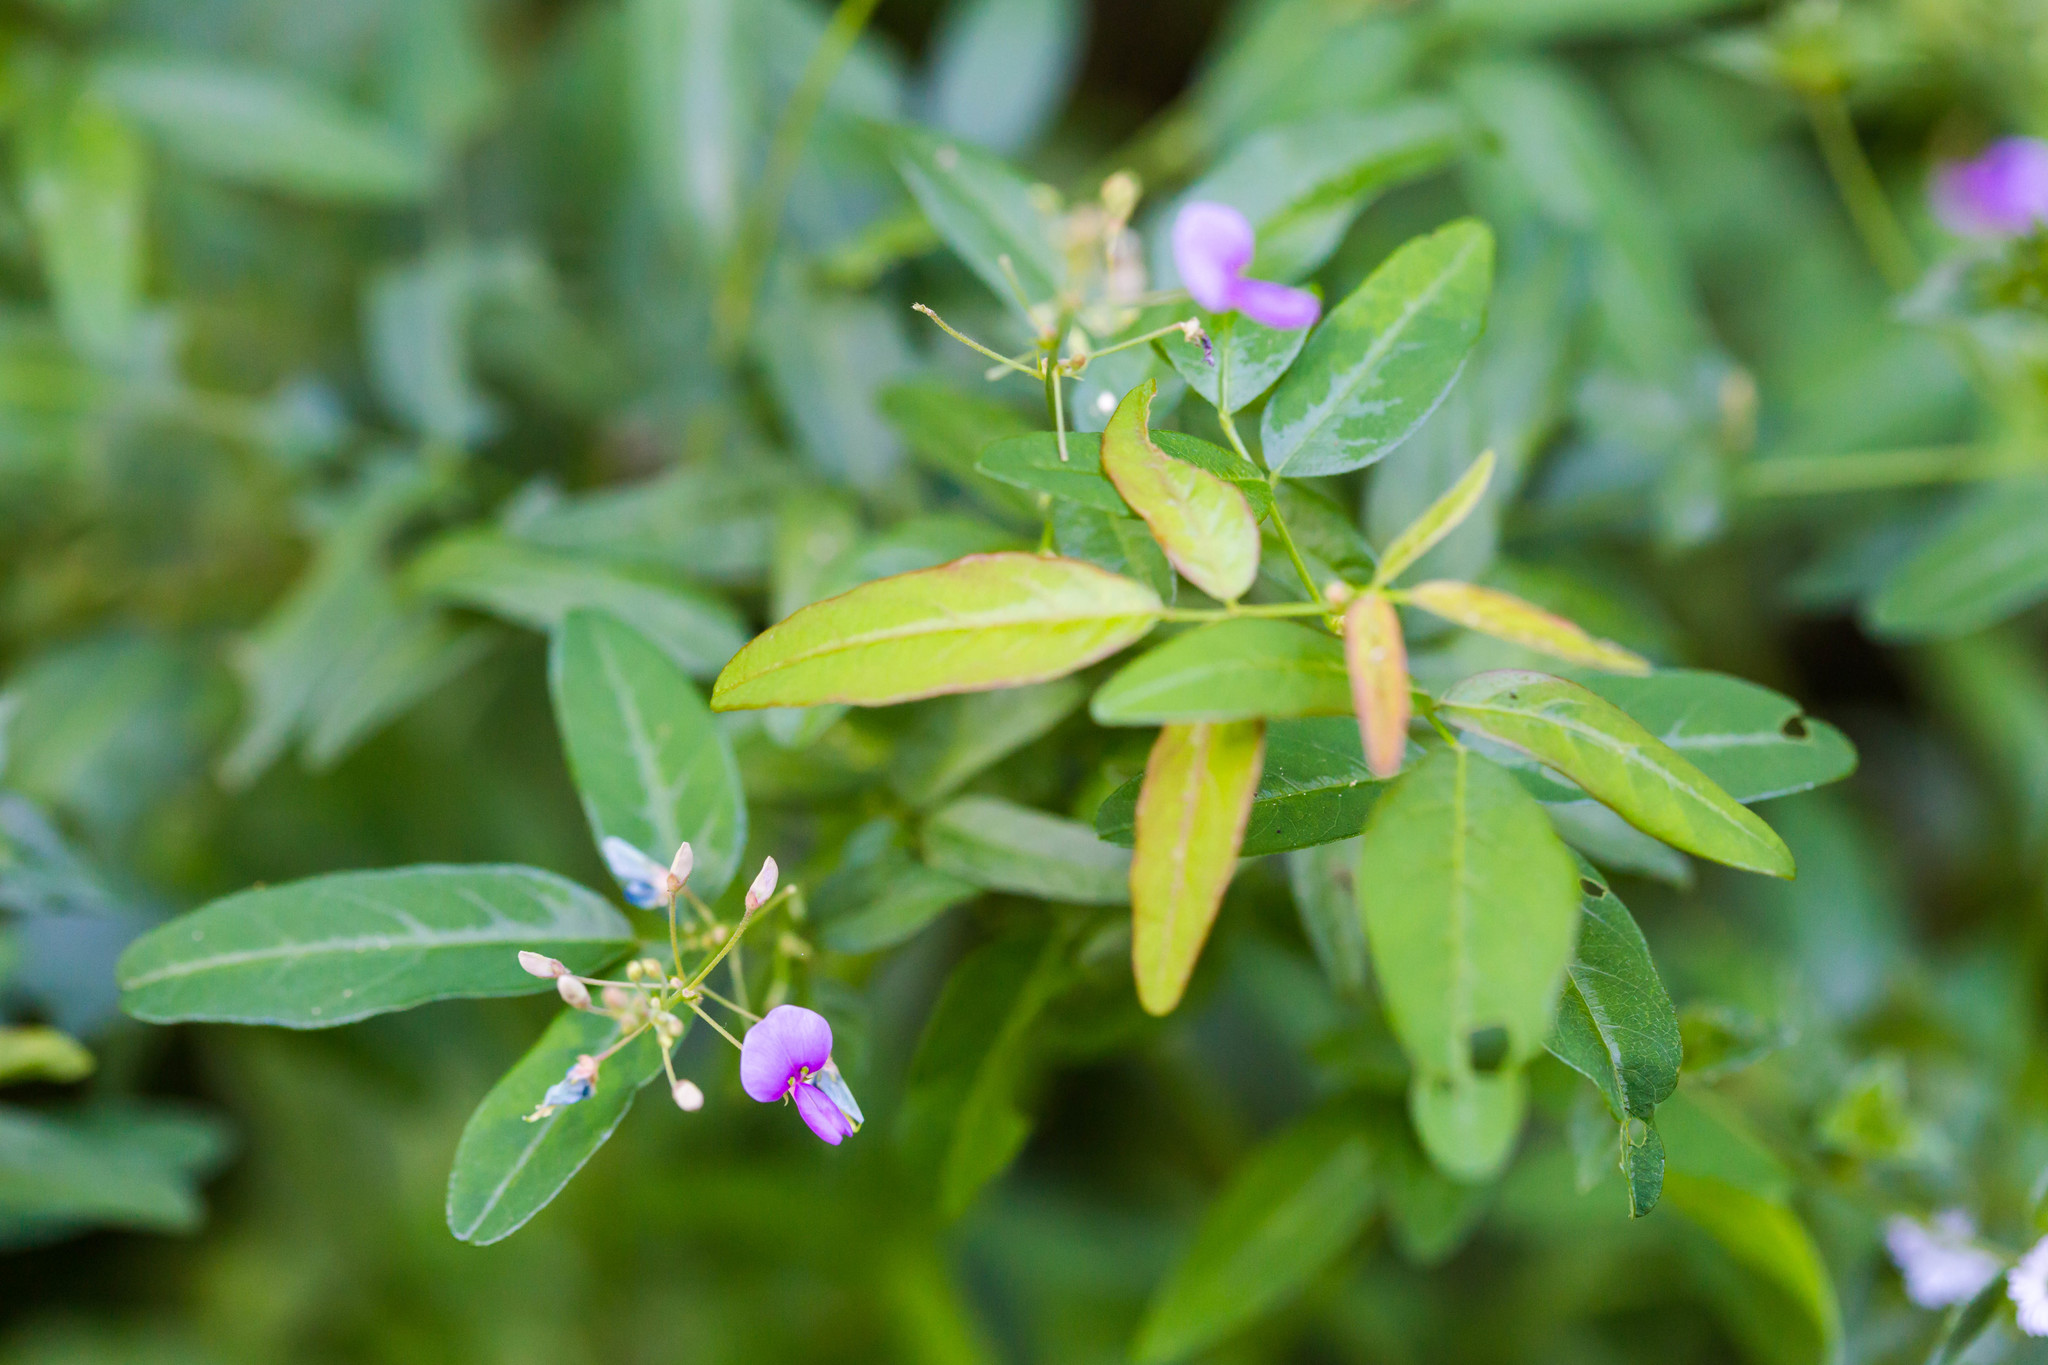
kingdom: Plantae
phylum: Tracheophyta
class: Magnoliopsida
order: Fabales
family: Fabaceae
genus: Desmodium
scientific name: Desmodium paniculatum
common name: Panicled tick-clover
